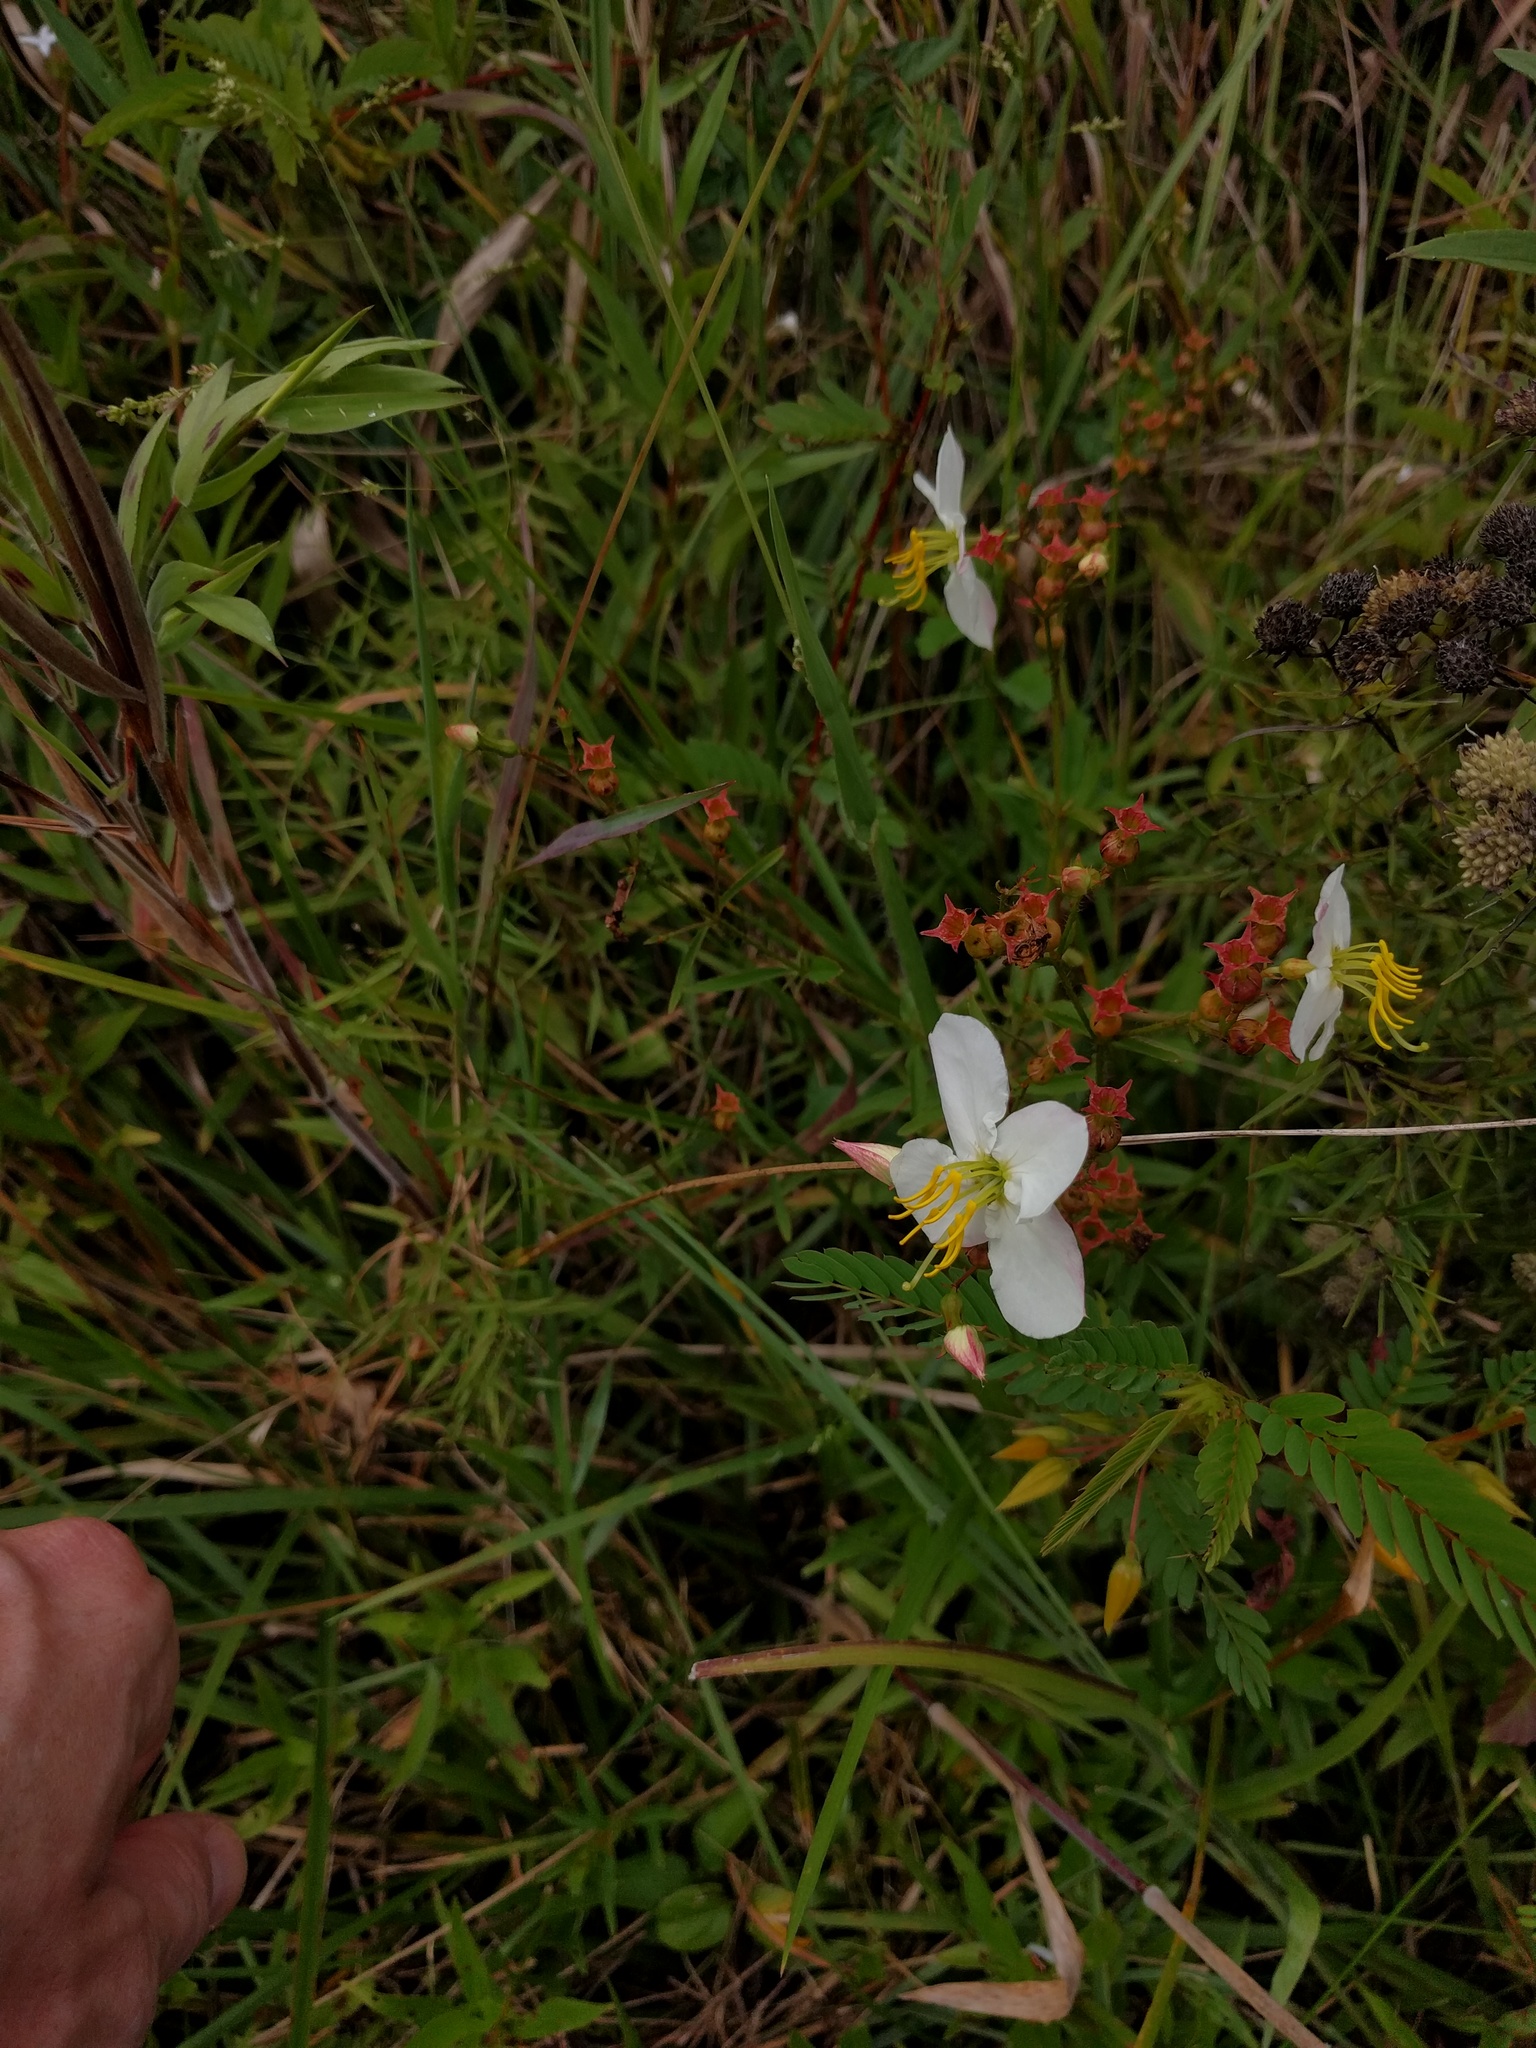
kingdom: Plantae
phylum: Tracheophyta
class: Magnoliopsida
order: Myrtales
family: Melastomataceae
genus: Rhexia
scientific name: Rhexia mariana
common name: Dull meadow-pitcher
